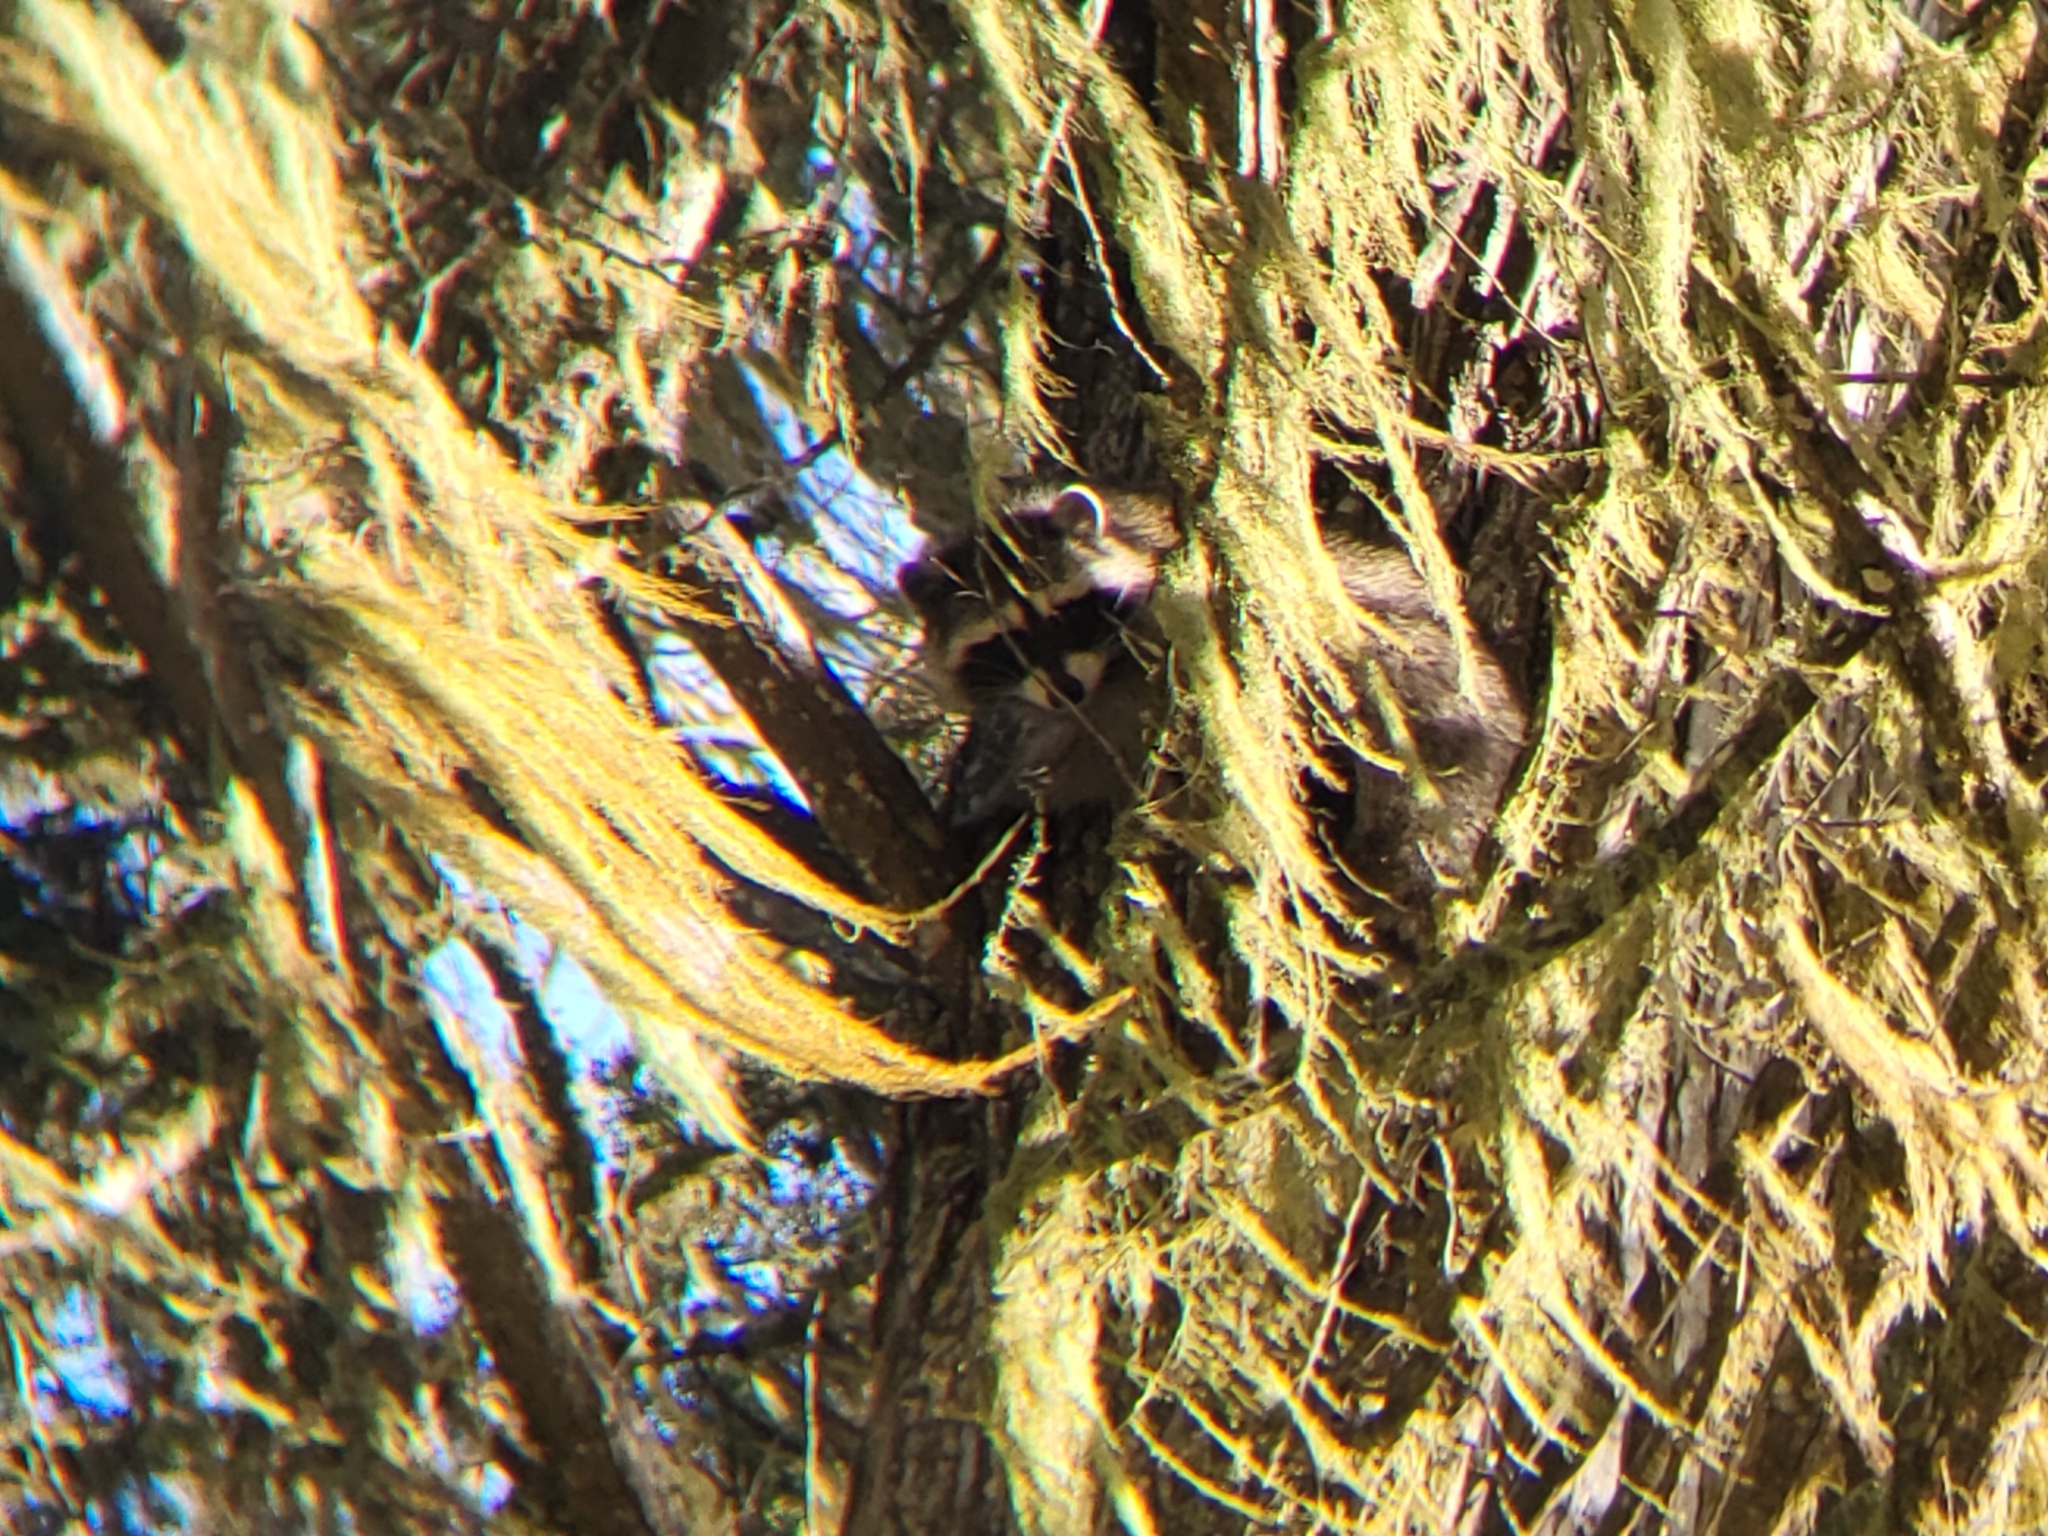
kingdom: Animalia
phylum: Chordata
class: Mammalia
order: Carnivora
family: Procyonidae
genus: Procyon
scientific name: Procyon lotor
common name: Raccoon
